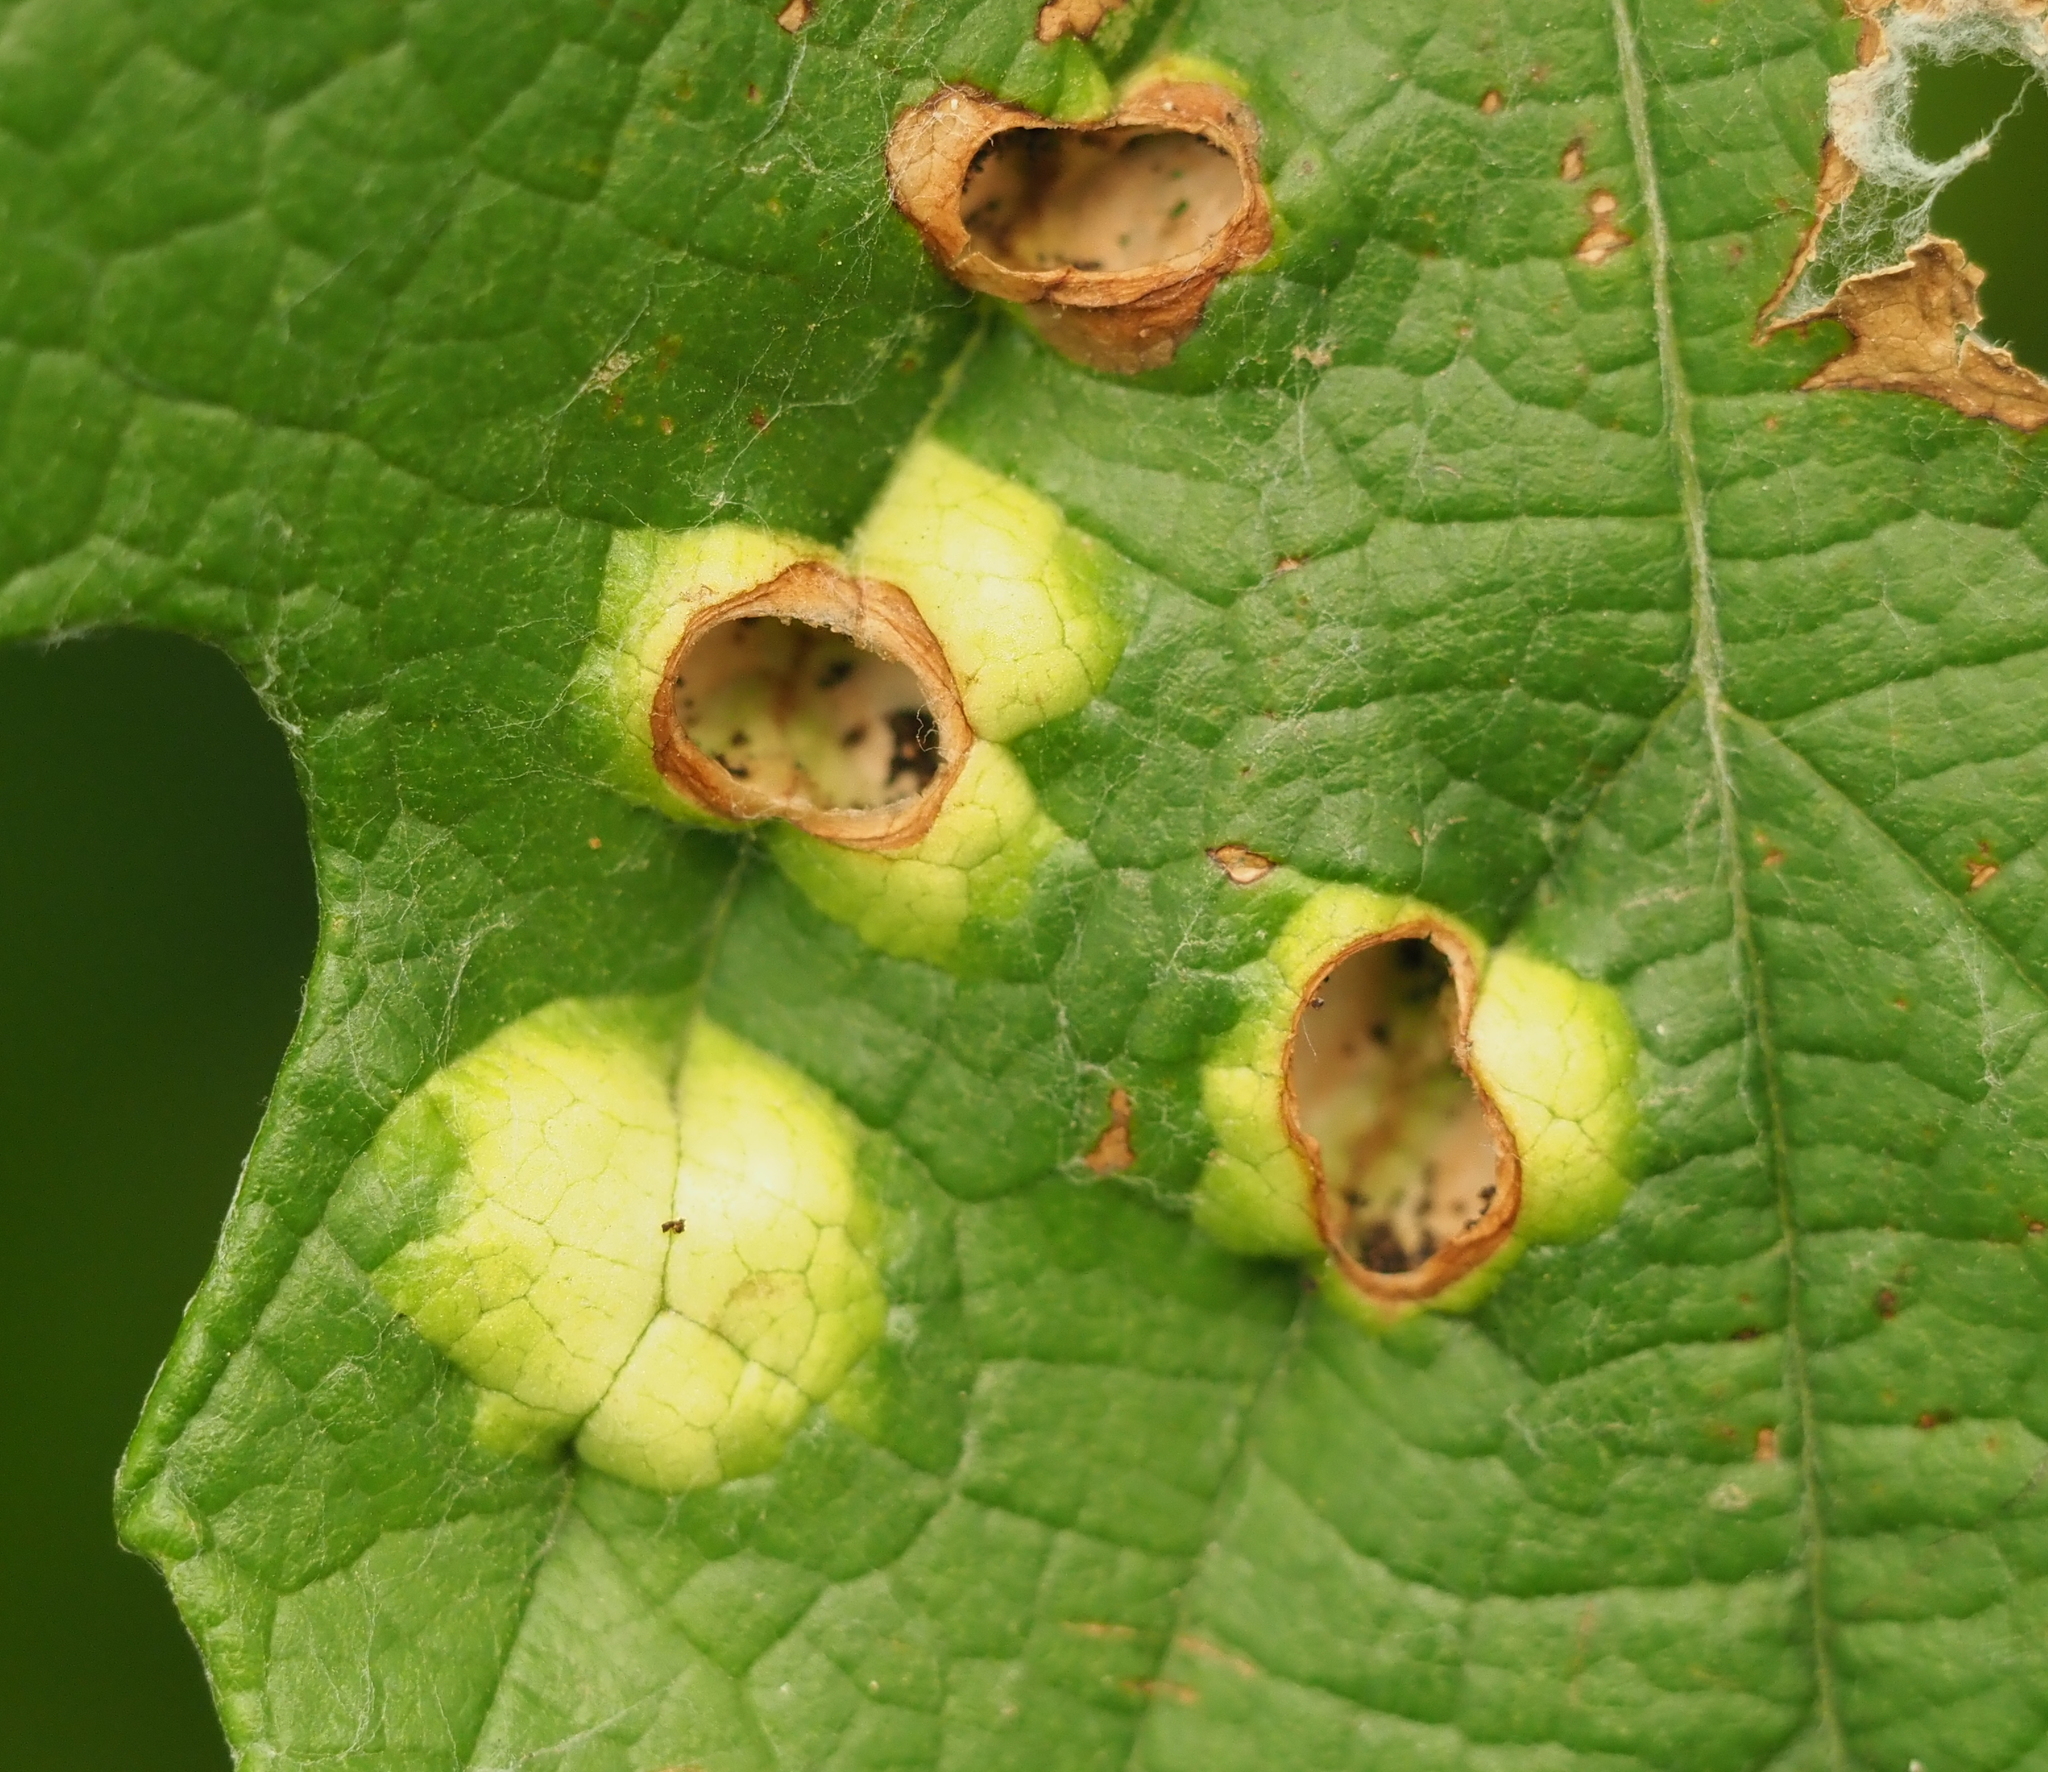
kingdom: Animalia
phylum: Arthropoda
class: Insecta
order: Lepidoptera
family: Heliozelidae
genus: Heliozela
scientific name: Heliozela aesella
